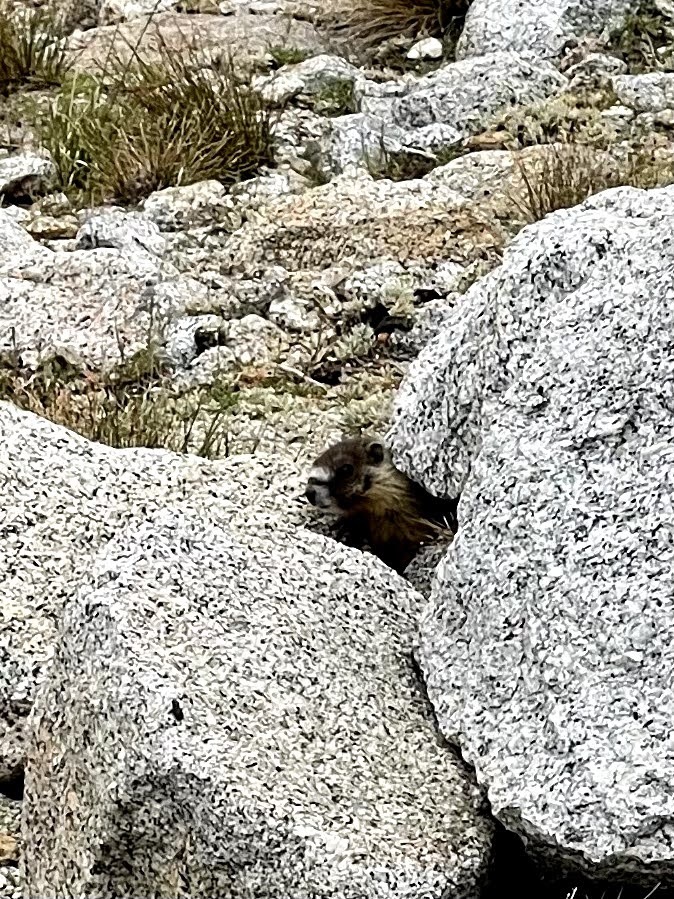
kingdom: Animalia
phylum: Chordata
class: Mammalia
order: Rodentia
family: Sciuridae
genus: Marmota
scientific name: Marmota flaviventris
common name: Yellow-bellied marmot
